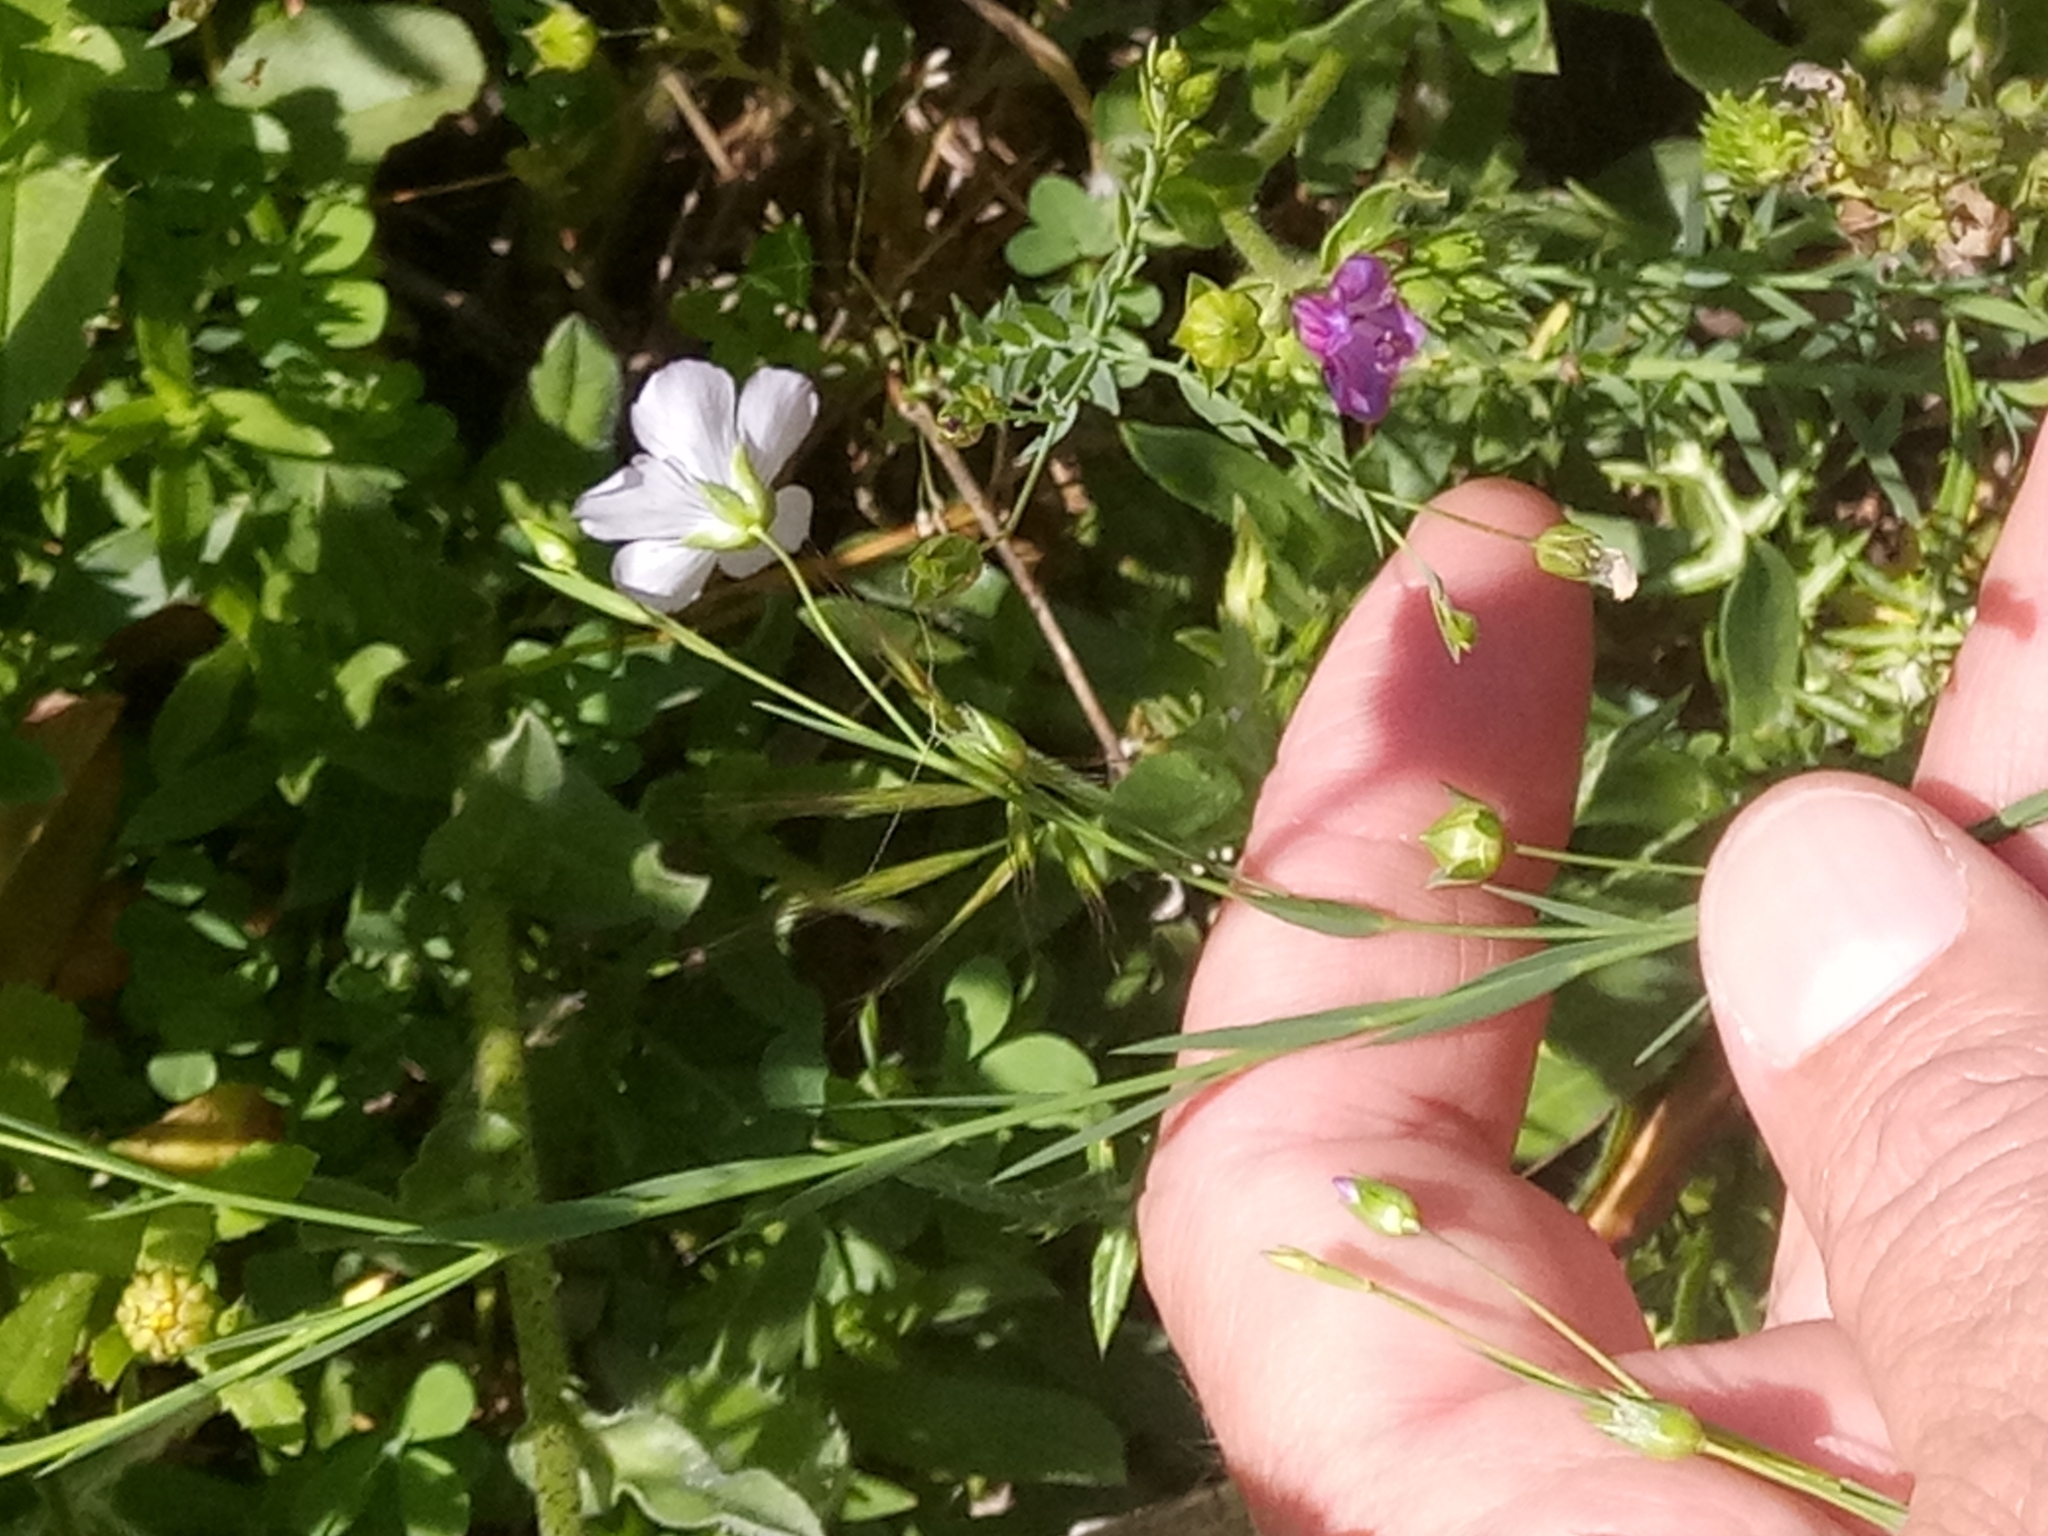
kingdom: Plantae
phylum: Tracheophyta
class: Magnoliopsida
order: Malpighiales
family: Linaceae
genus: Linum
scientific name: Linum bienne
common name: Pale flax
